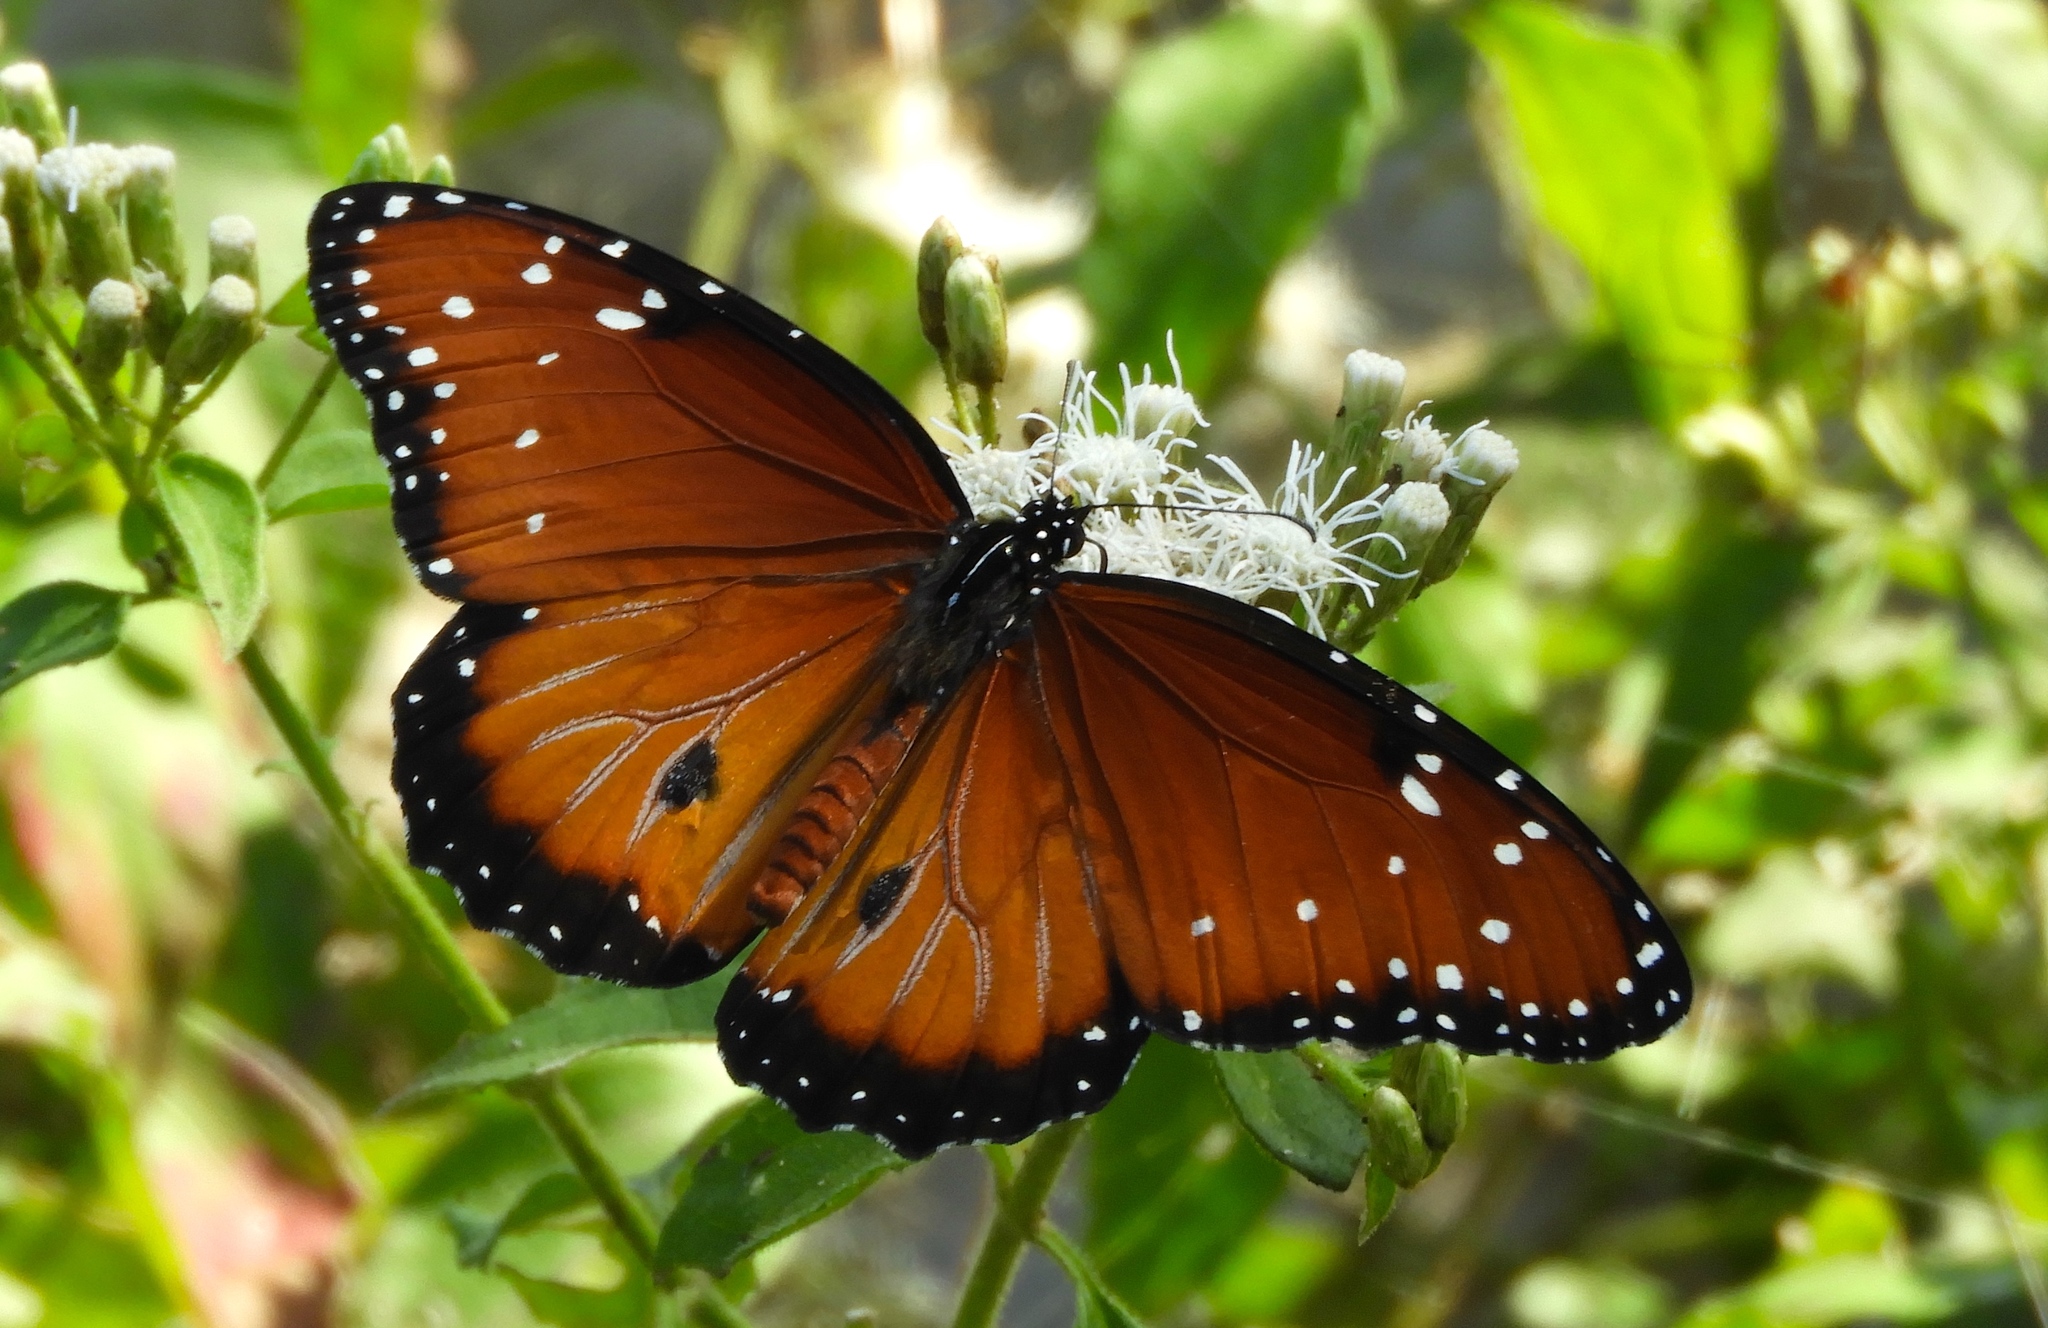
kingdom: Animalia
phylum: Arthropoda
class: Insecta
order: Lepidoptera
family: Nymphalidae
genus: Danaus
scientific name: Danaus gilippus
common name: Queen
